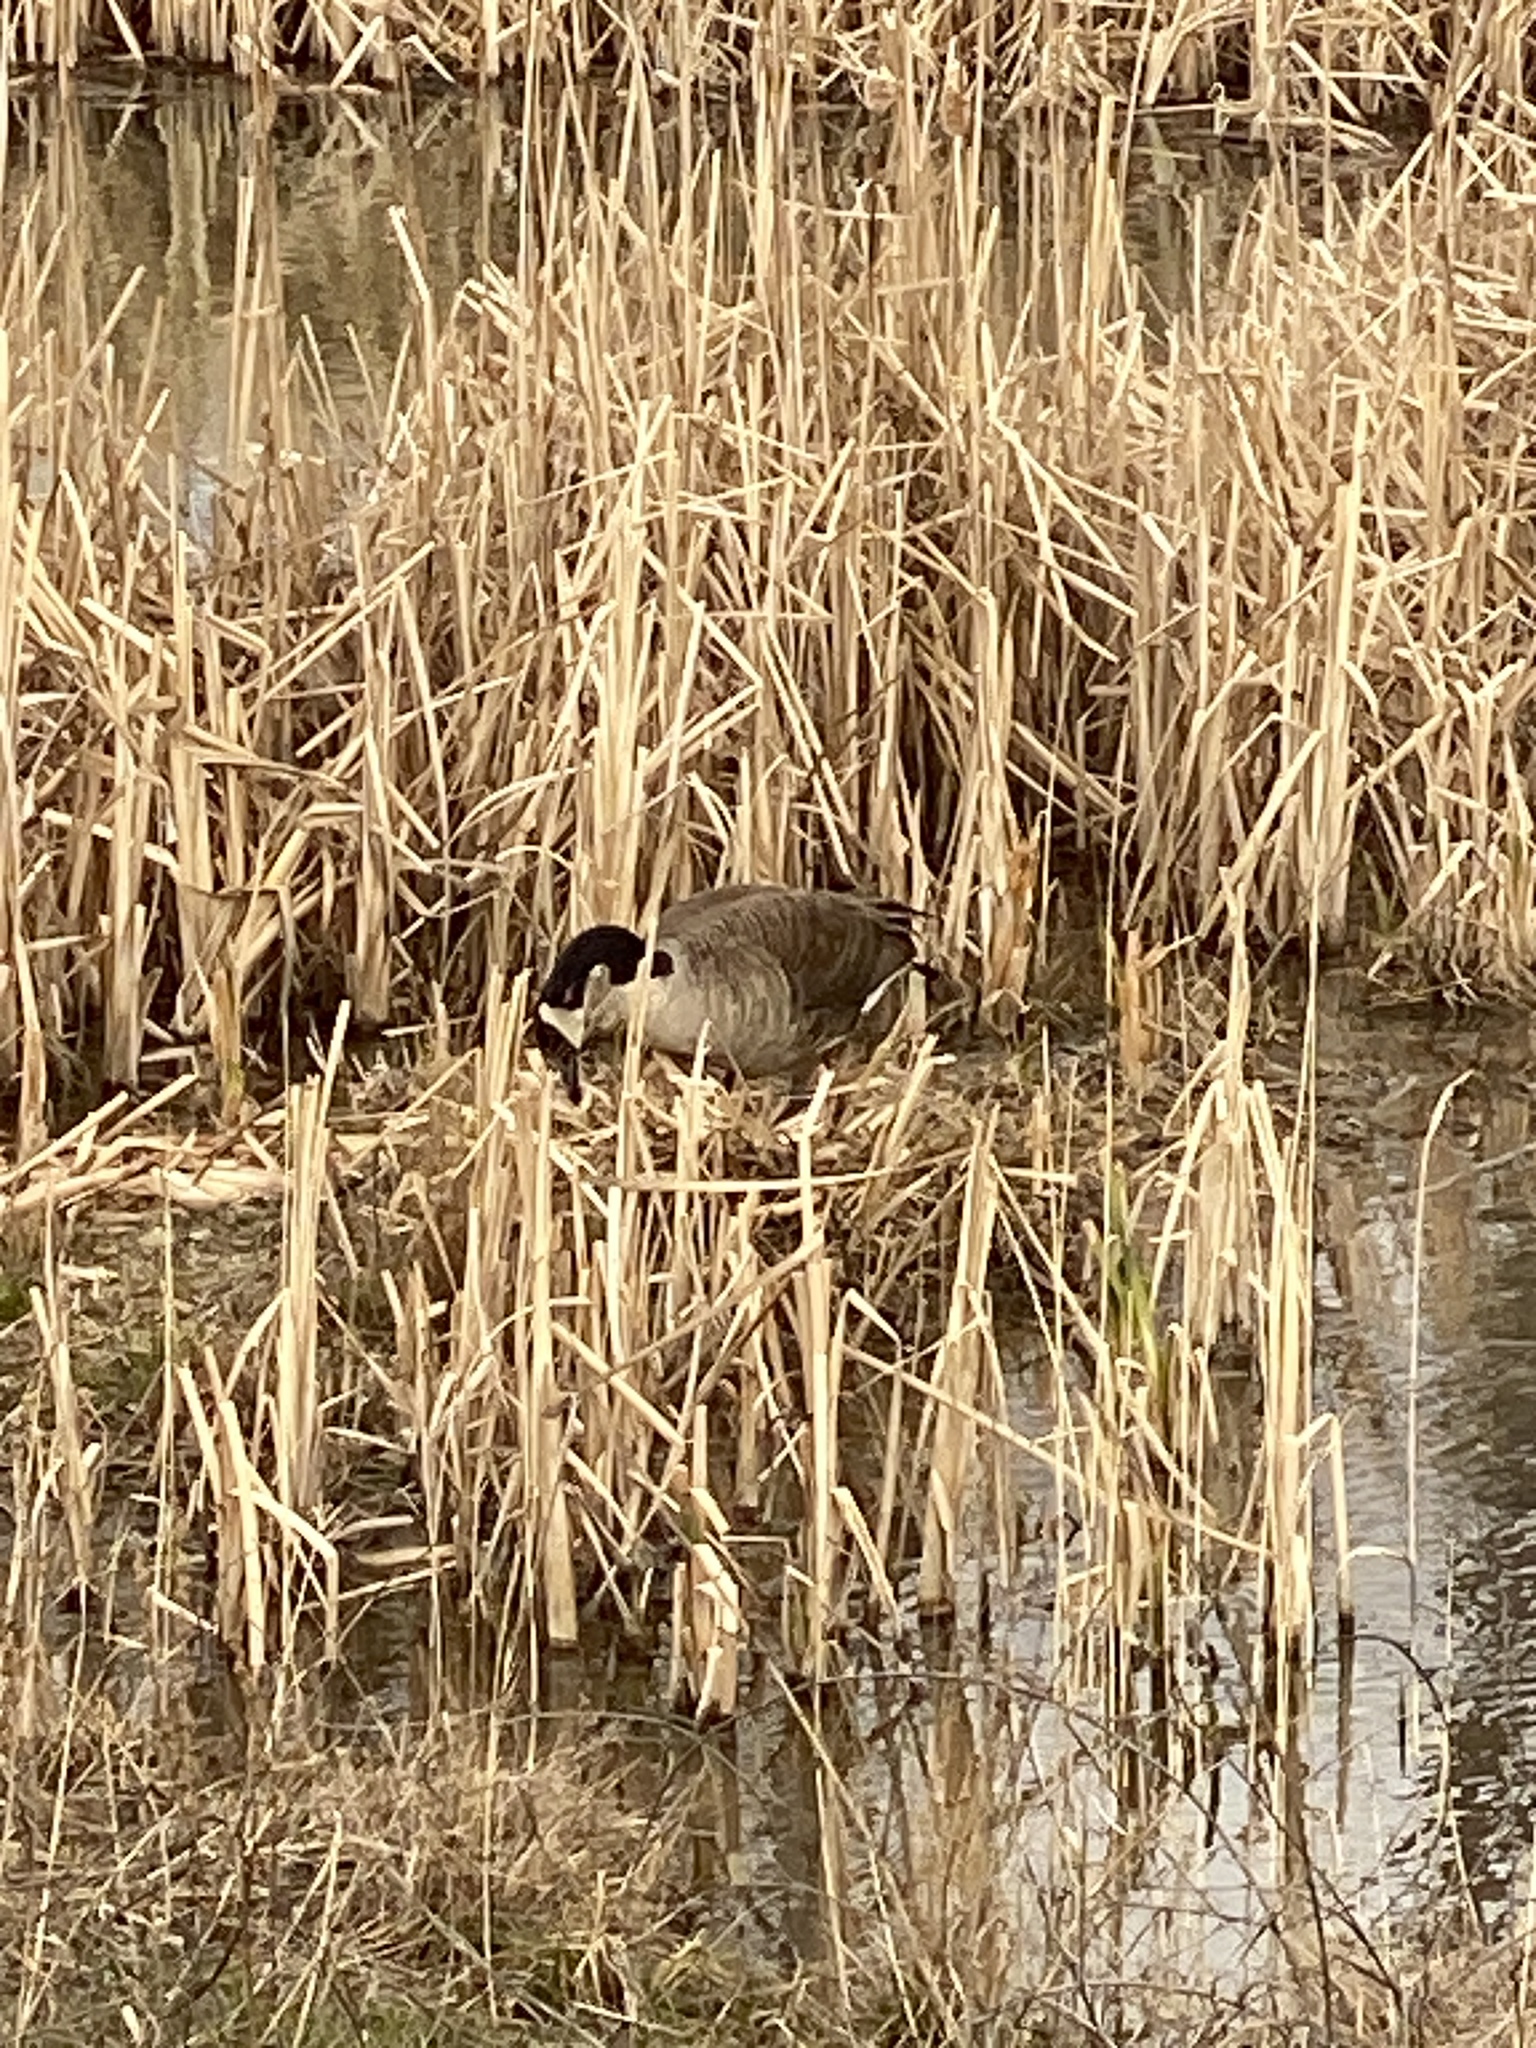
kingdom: Animalia
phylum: Chordata
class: Aves
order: Anseriformes
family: Anatidae
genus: Branta
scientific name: Branta canadensis
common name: Canada goose
